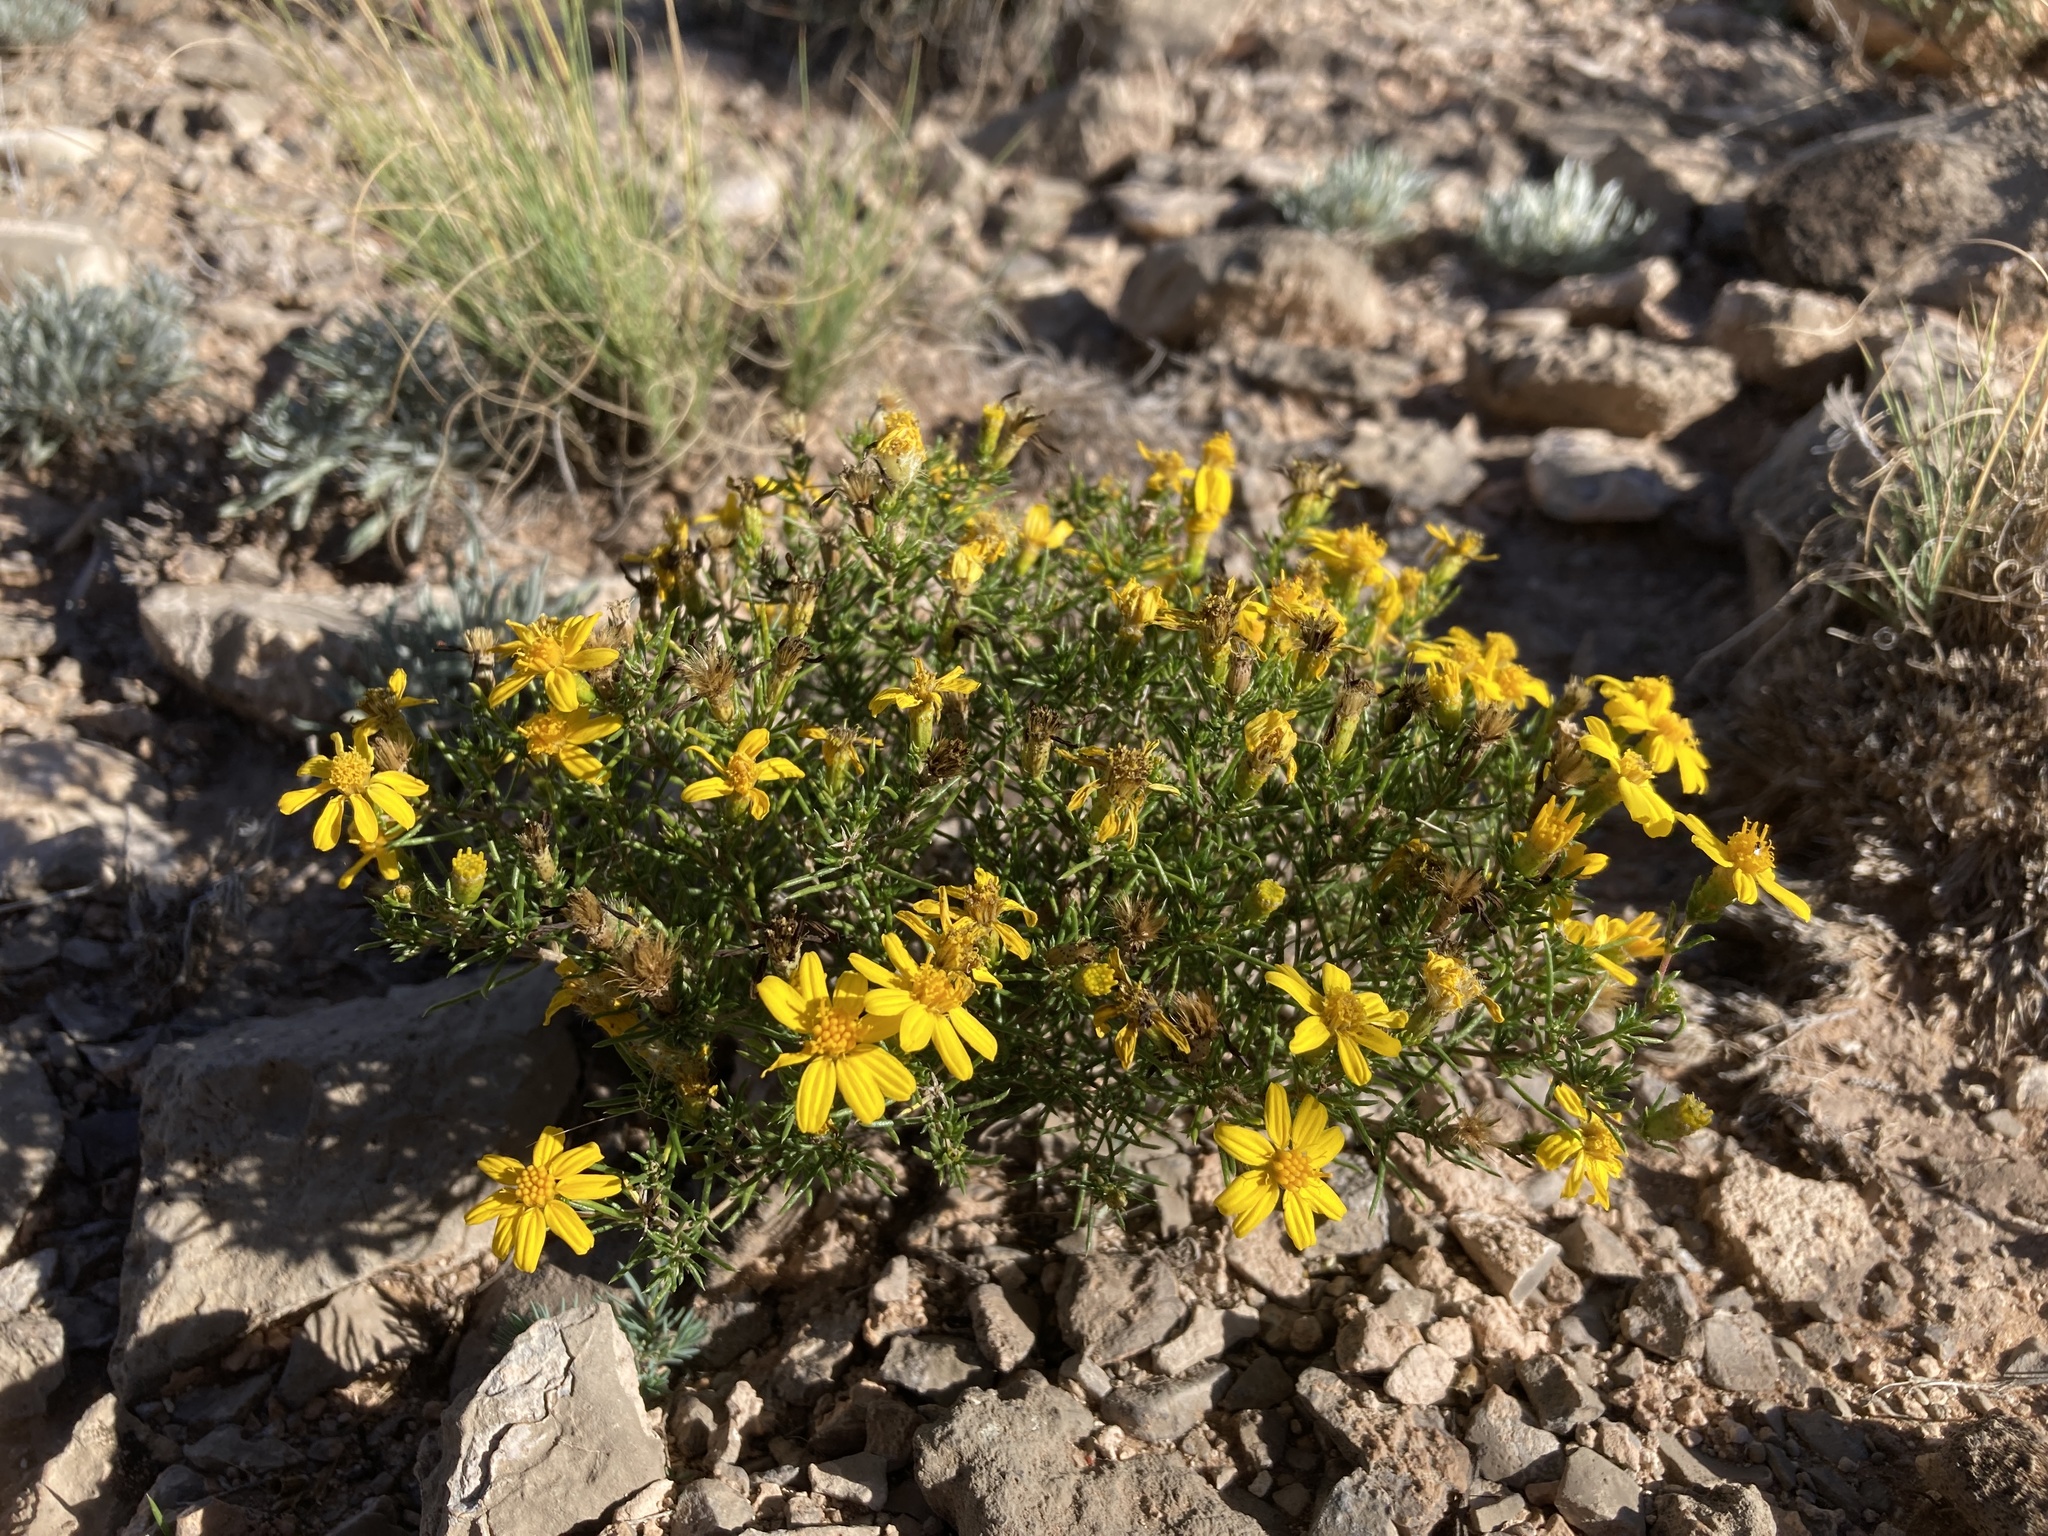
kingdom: Plantae
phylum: Tracheophyta
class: Magnoliopsida
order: Asterales
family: Asteraceae
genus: Thymophylla
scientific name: Thymophylla acerosa
